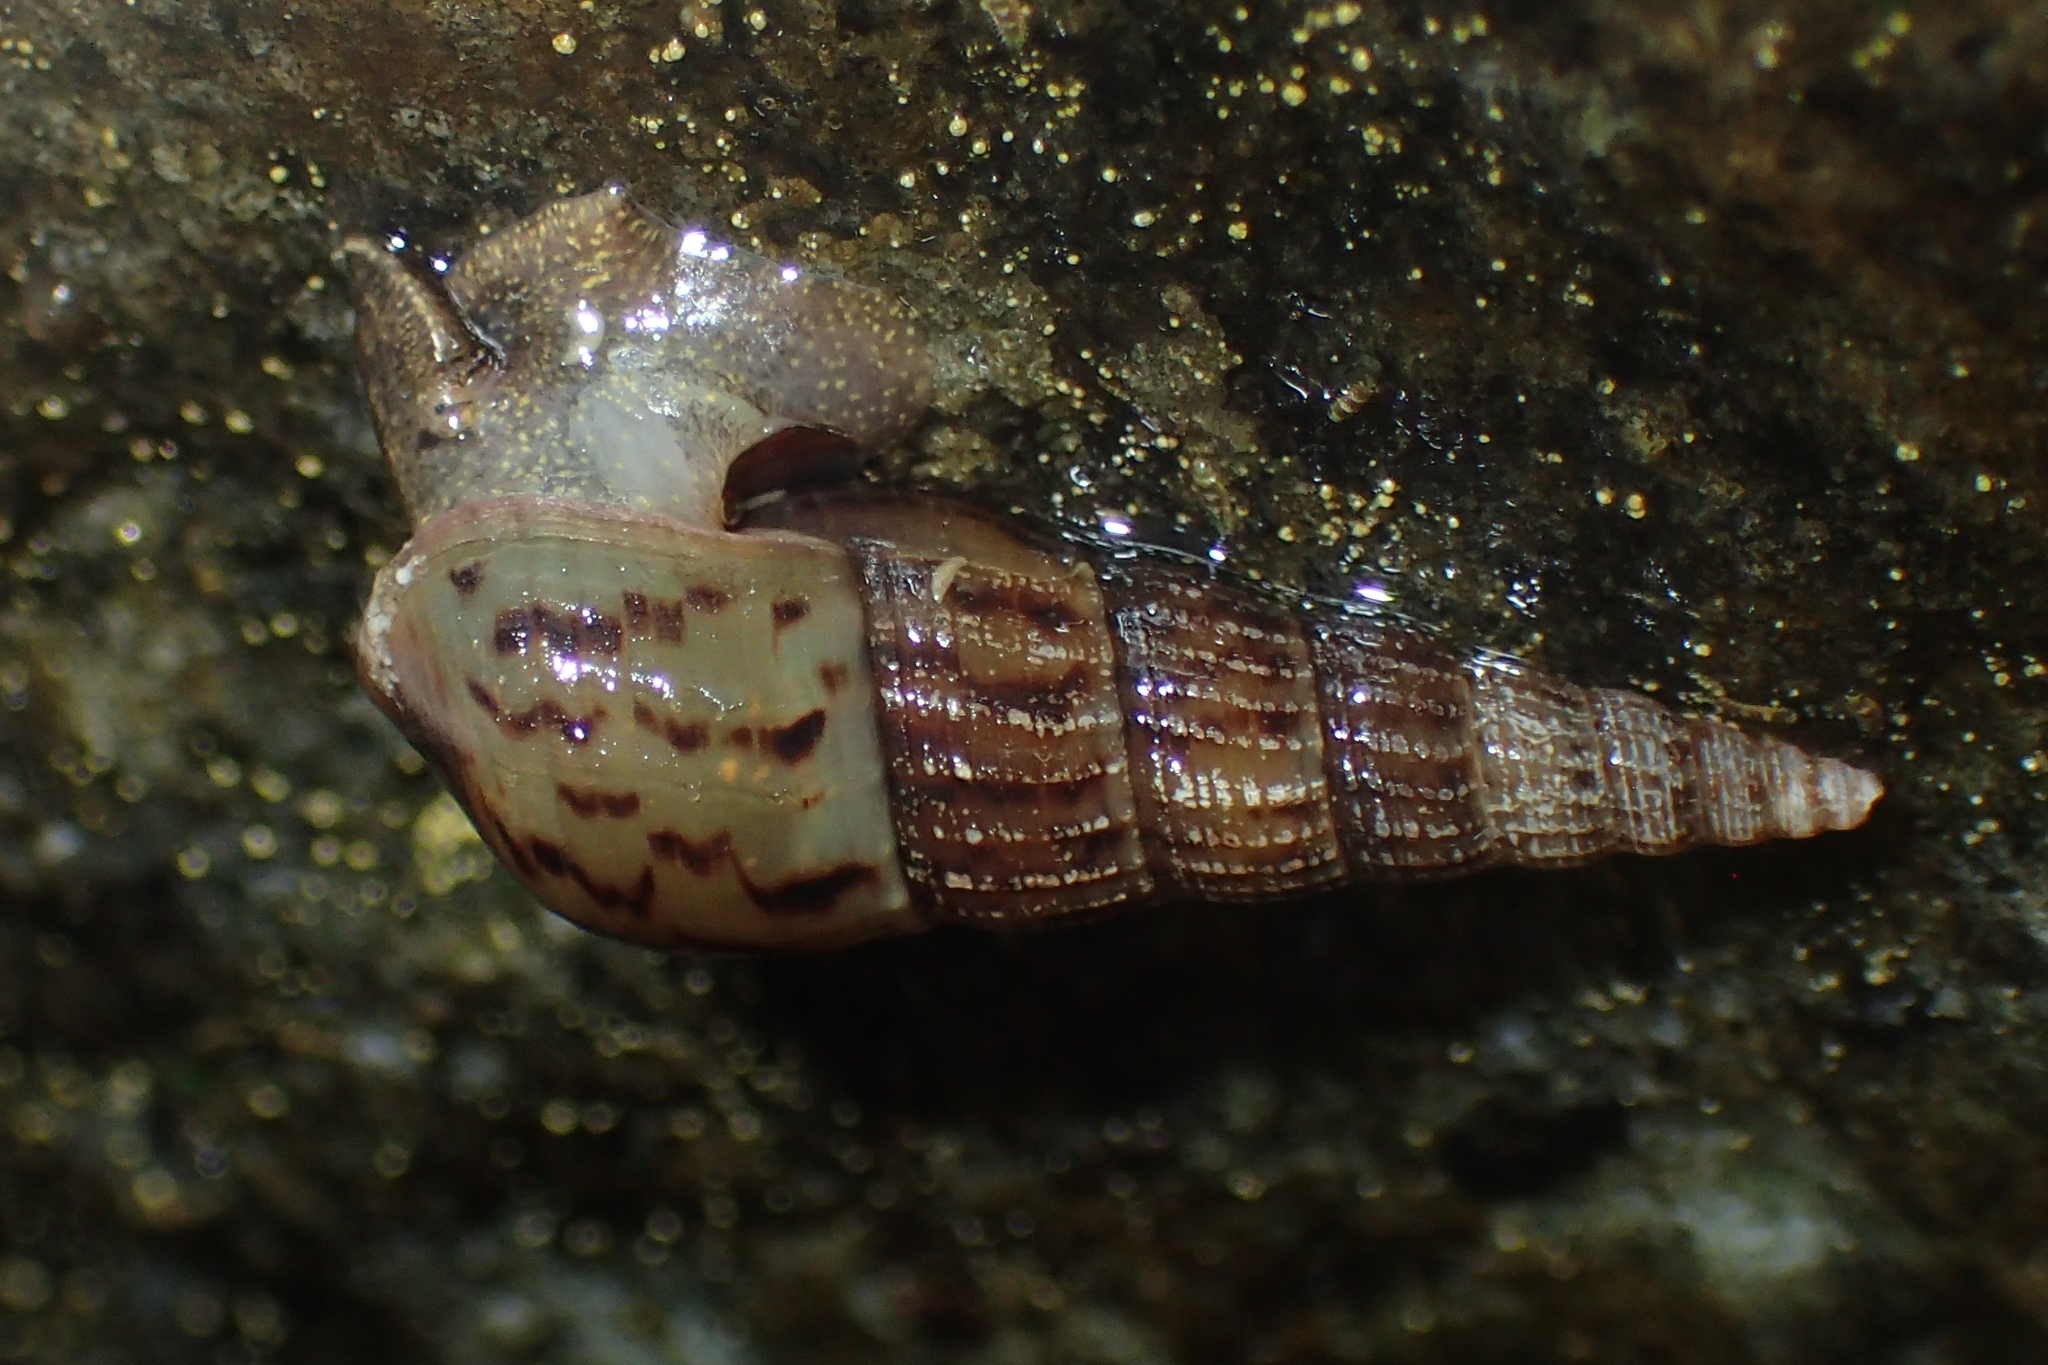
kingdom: Animalia
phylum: Mollusca
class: Gastropoda
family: Thiaridae
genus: Melanoides
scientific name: Melanoides tuberculata
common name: Red-rim melania
